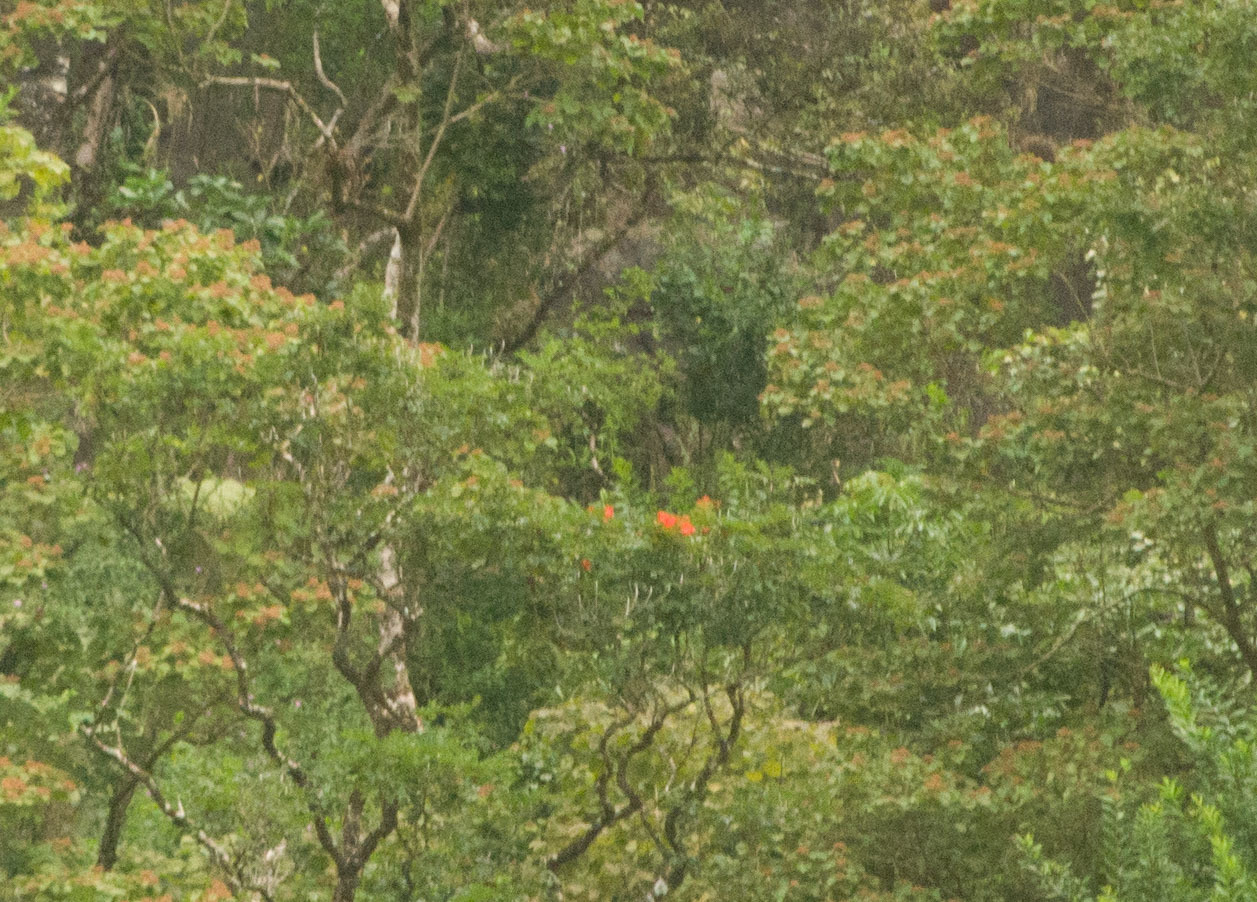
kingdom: Plantae
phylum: Tracheophyta
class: Magnoliopsida
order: Lamiales
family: Bignoniaceae
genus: Spathodea
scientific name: Spathodea campanulata
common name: African tuliptree
